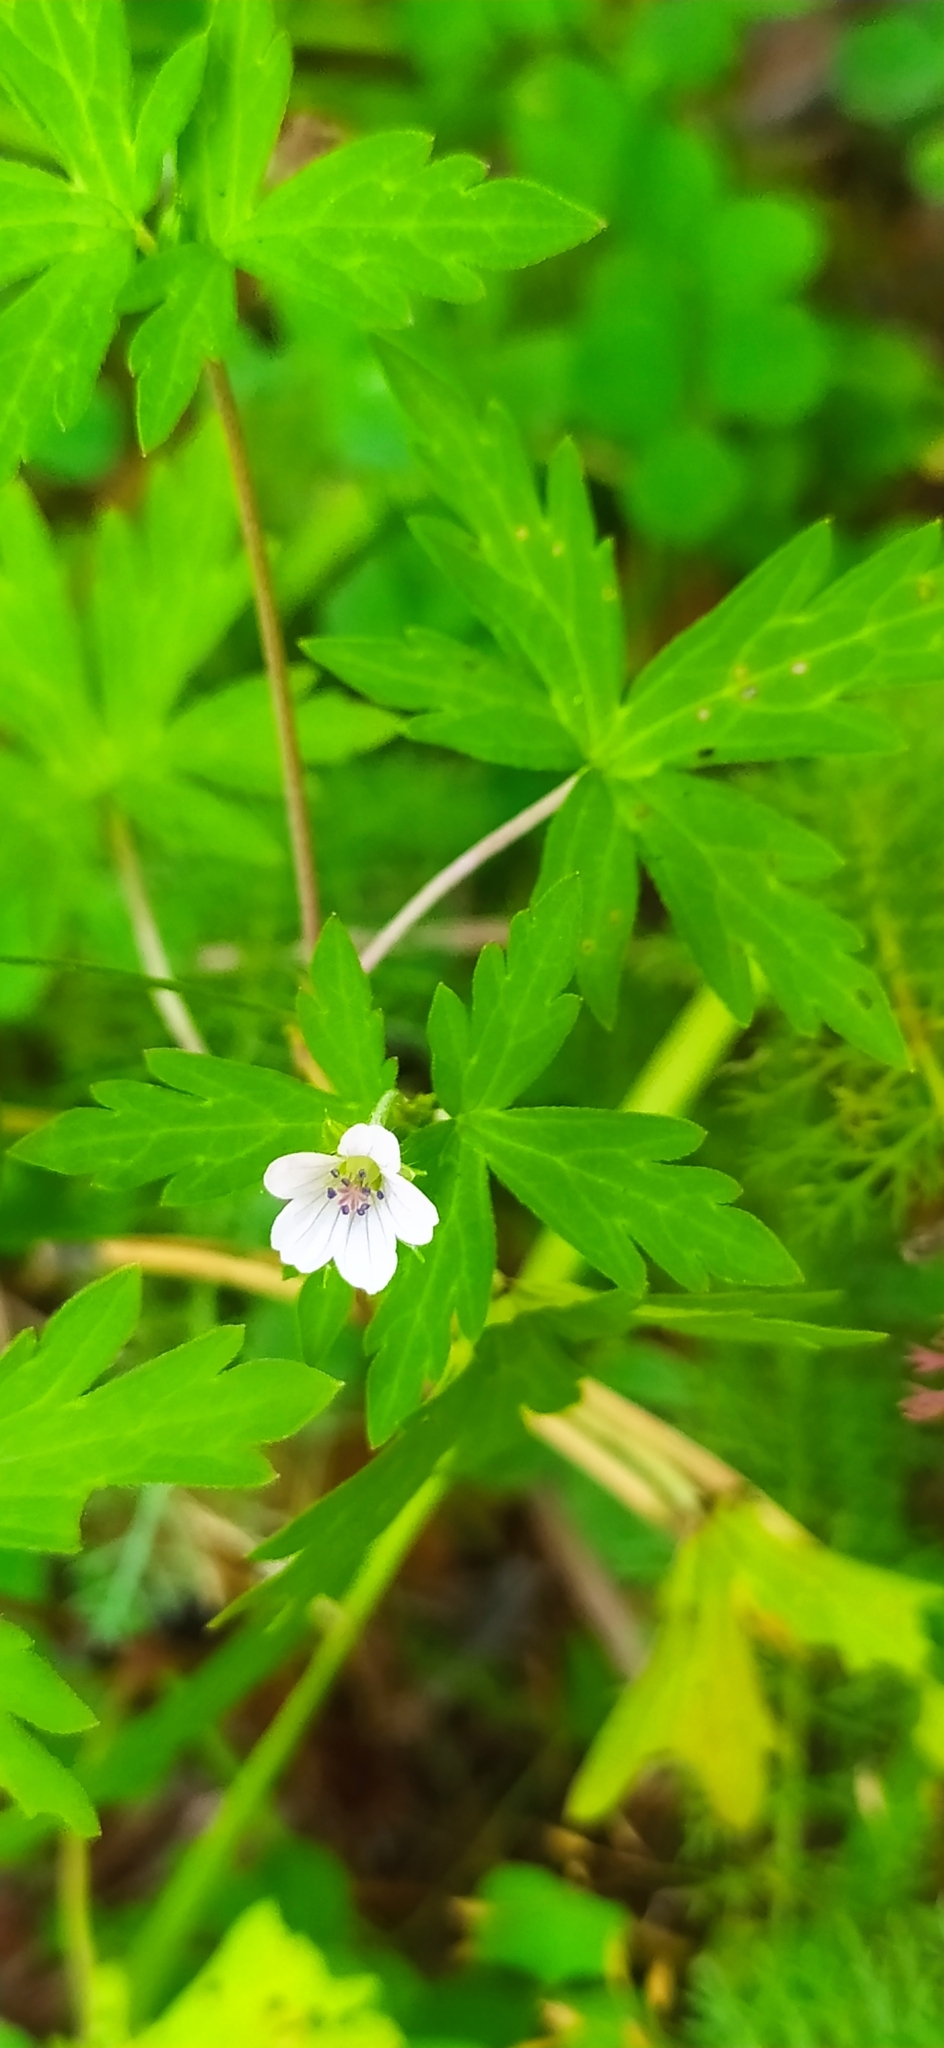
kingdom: Plantae
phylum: Tracheophyta
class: Magnoliopsida
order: Geraniales
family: Geraniaceae
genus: Geranium
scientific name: Geranium sibiricum
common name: Siberian crane's-bill
